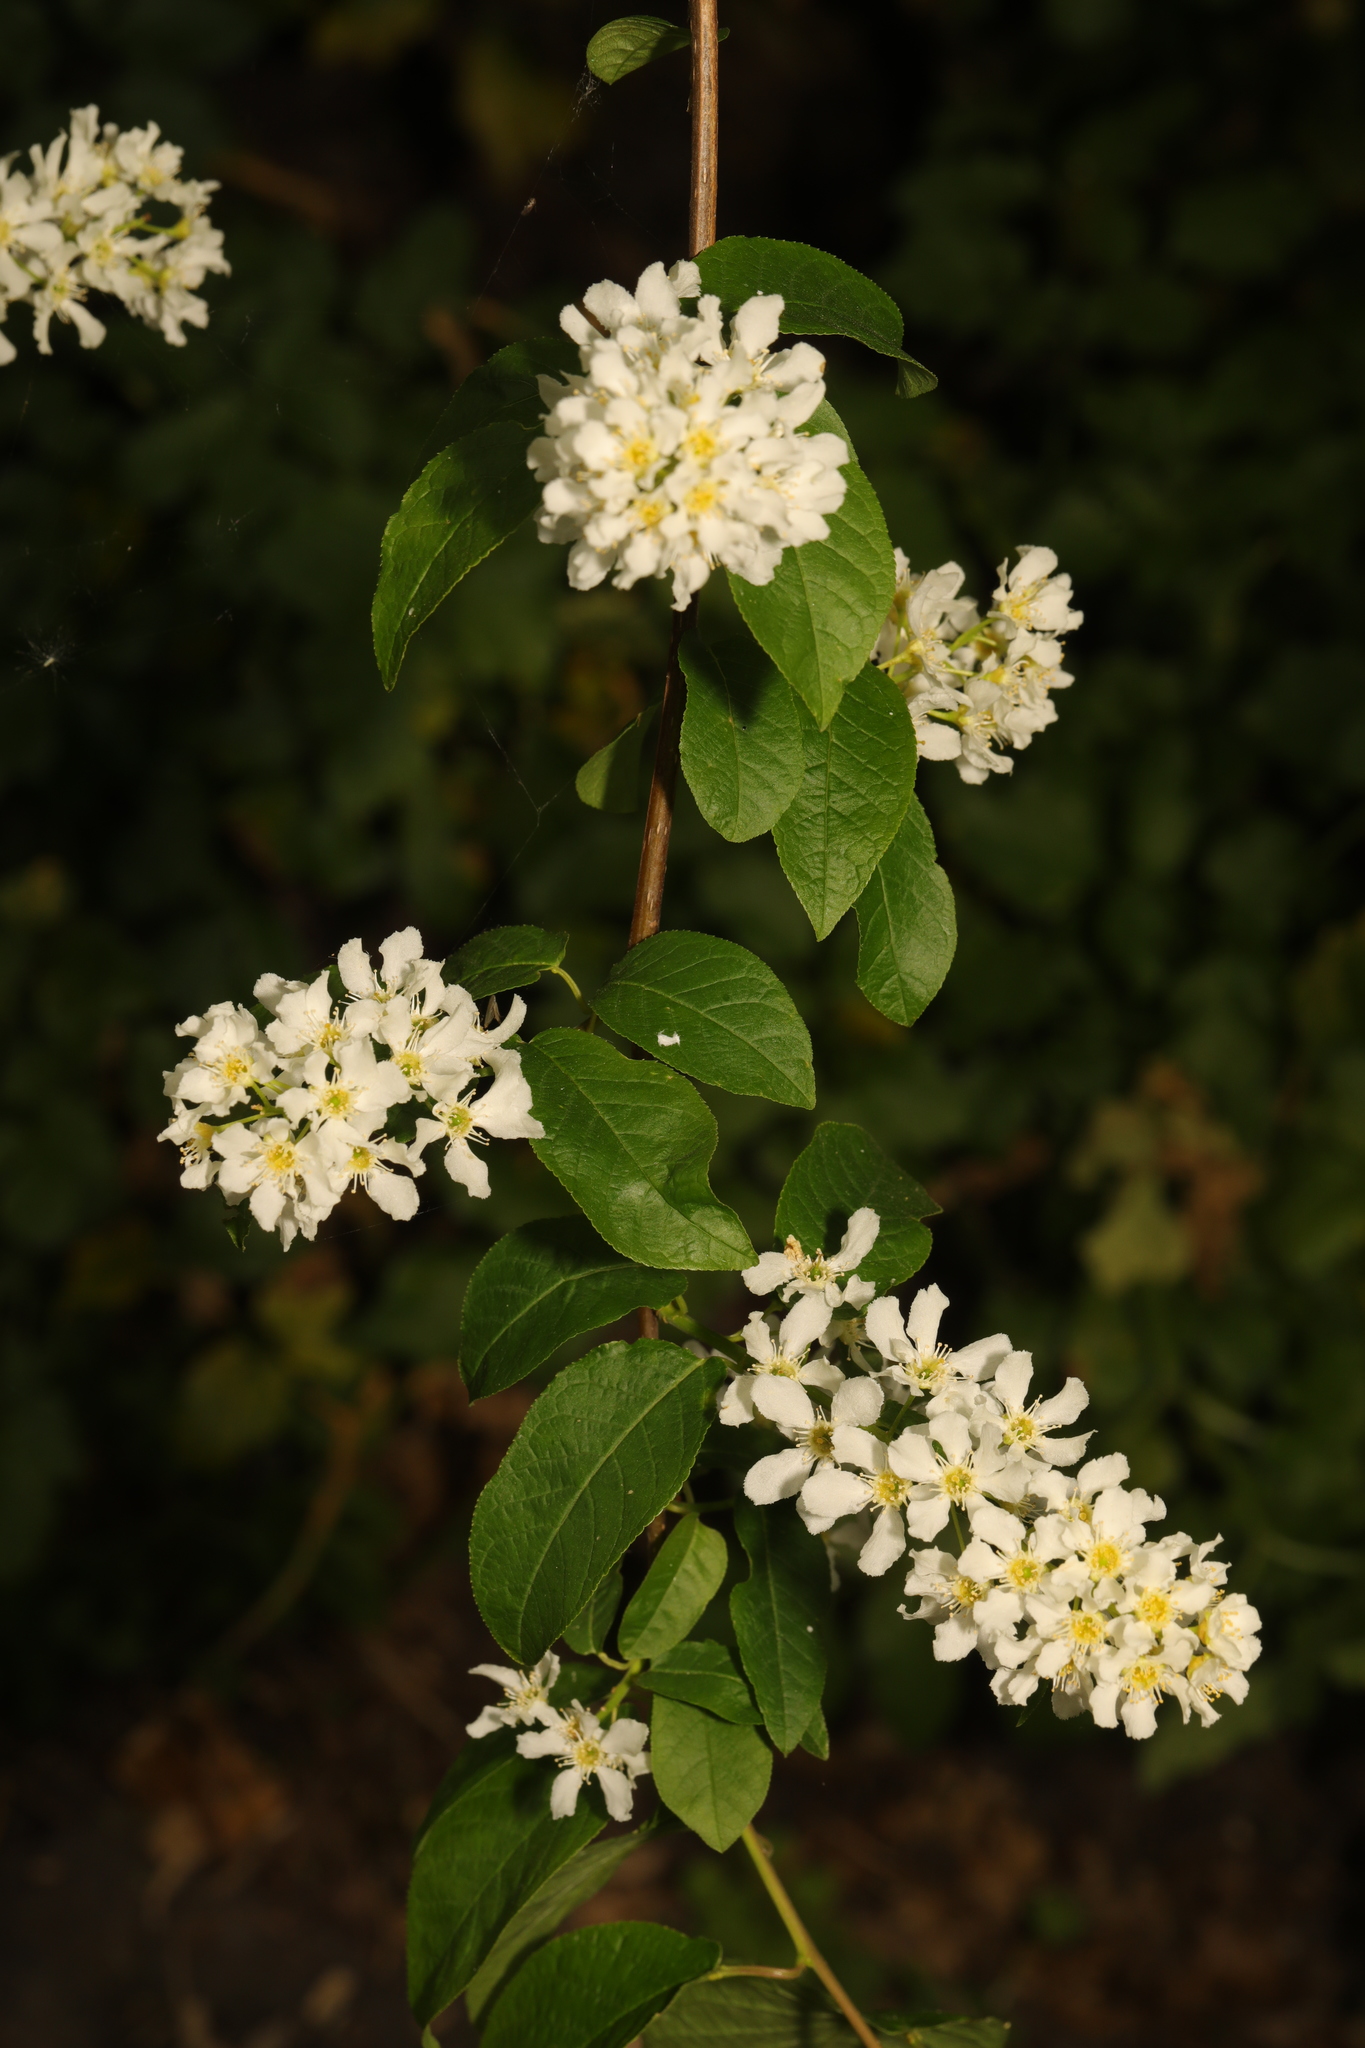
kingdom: Plantae
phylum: Tracheophyta
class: Magnoliopsida
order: Rosales
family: Rosaceae
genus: Prunus
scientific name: Prunus padus
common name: Bird cherry
